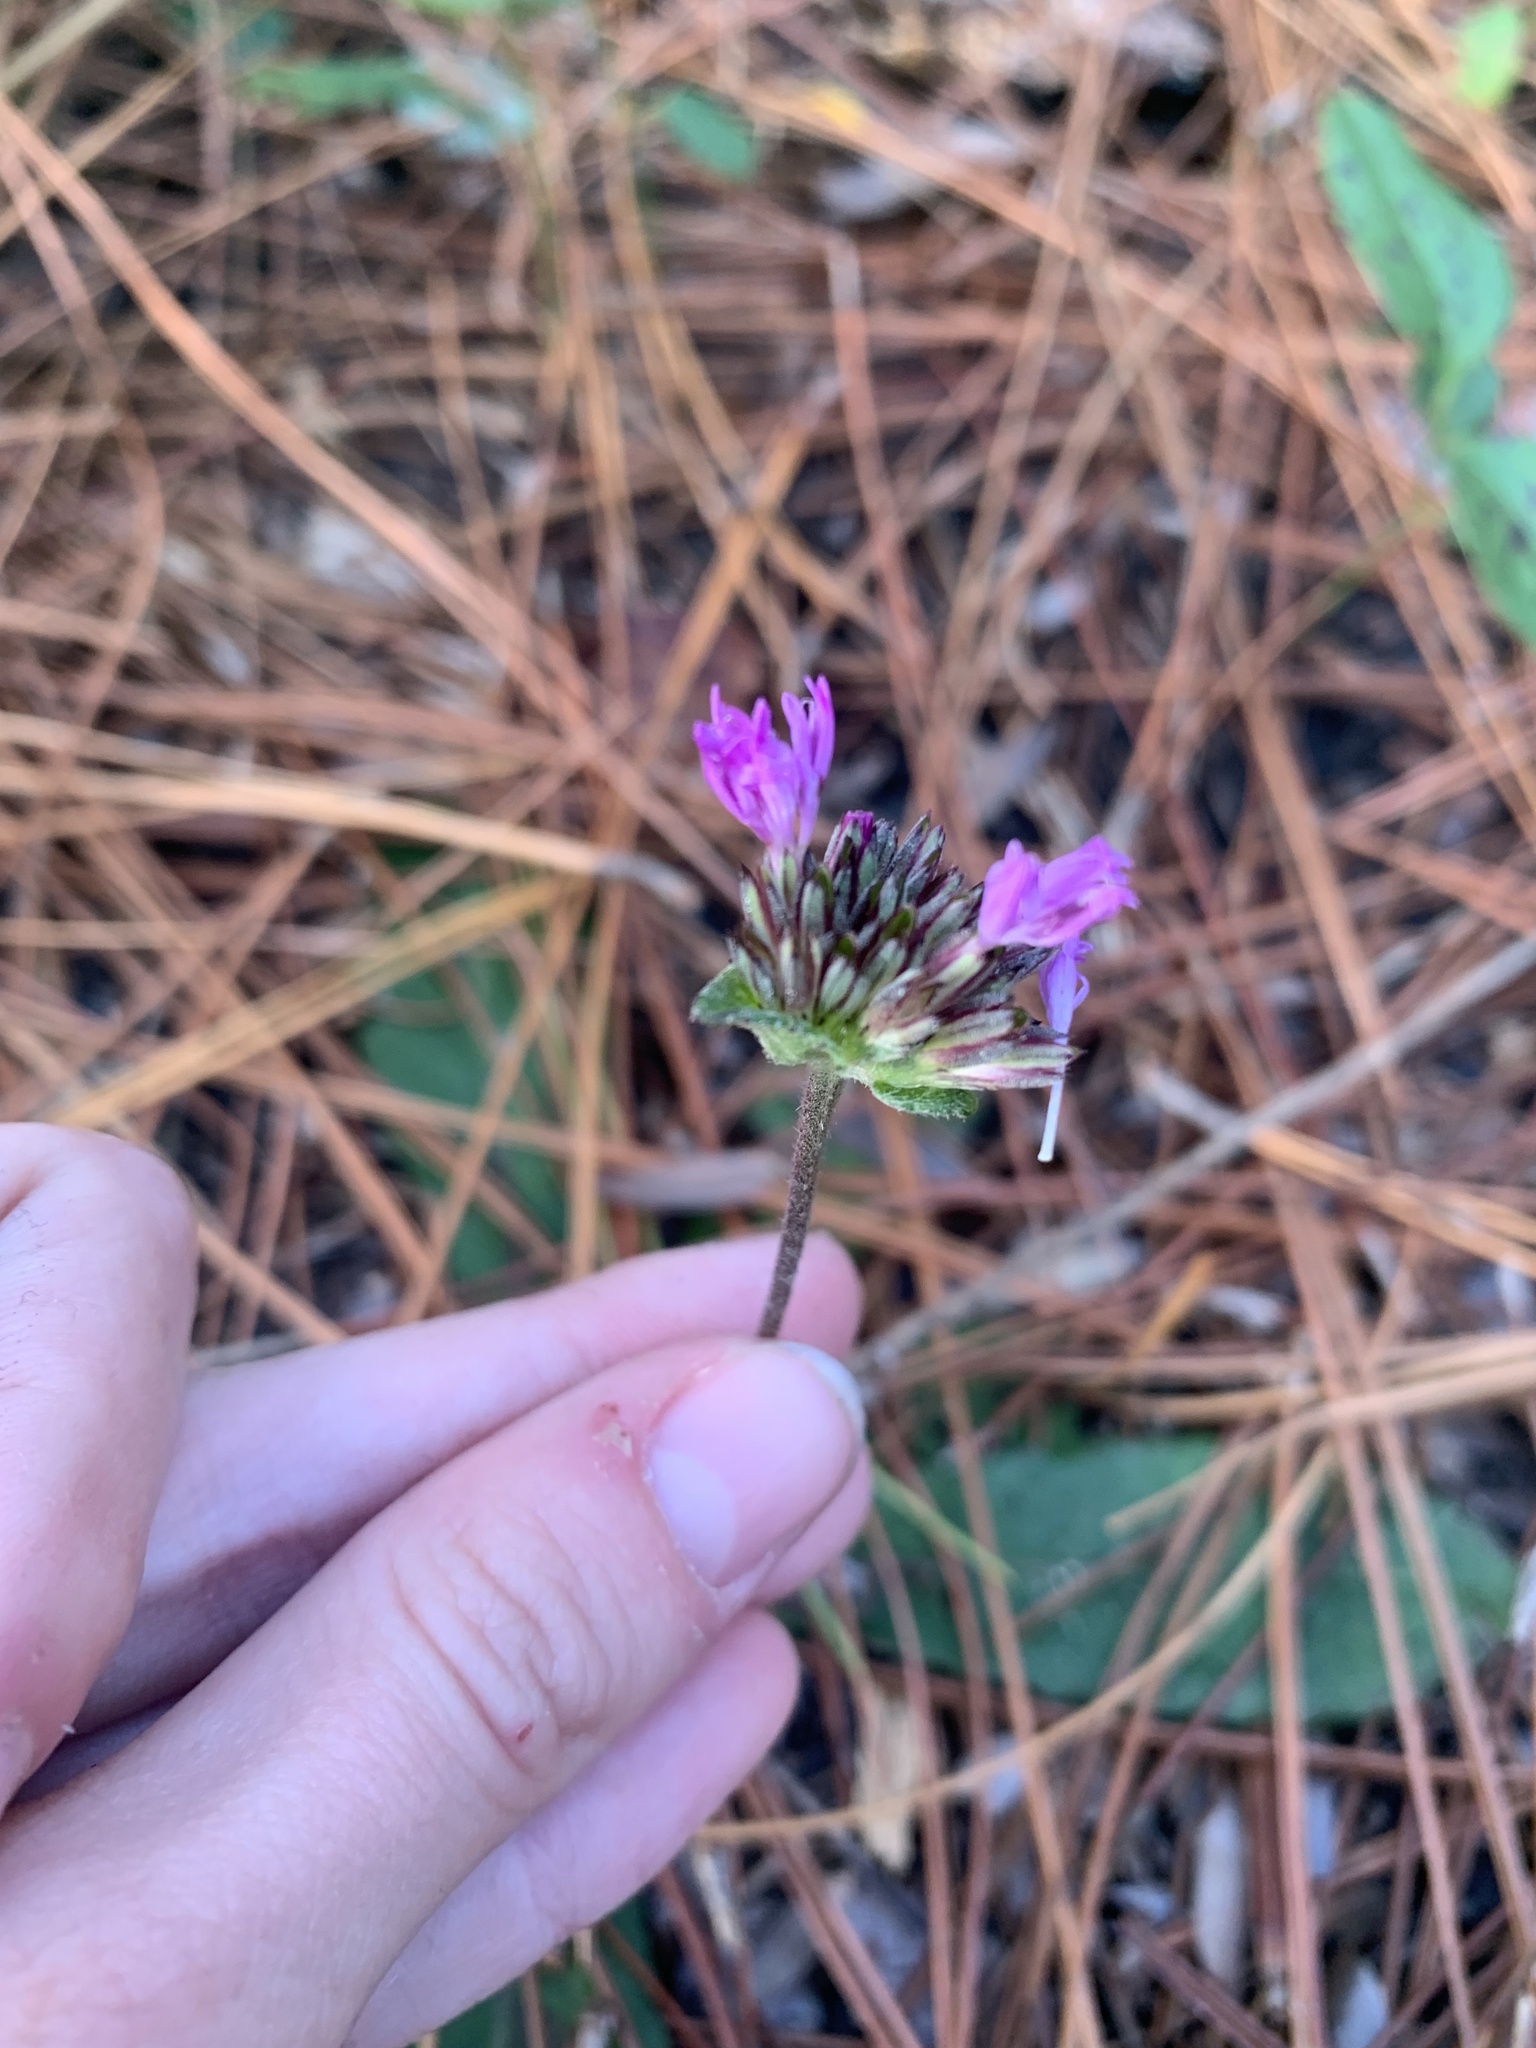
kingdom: Plantae
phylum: Tracheophyta
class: Magnoliopsida
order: Asterales
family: Asteraceae
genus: Elephantopus
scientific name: Elephantopus nudatus
